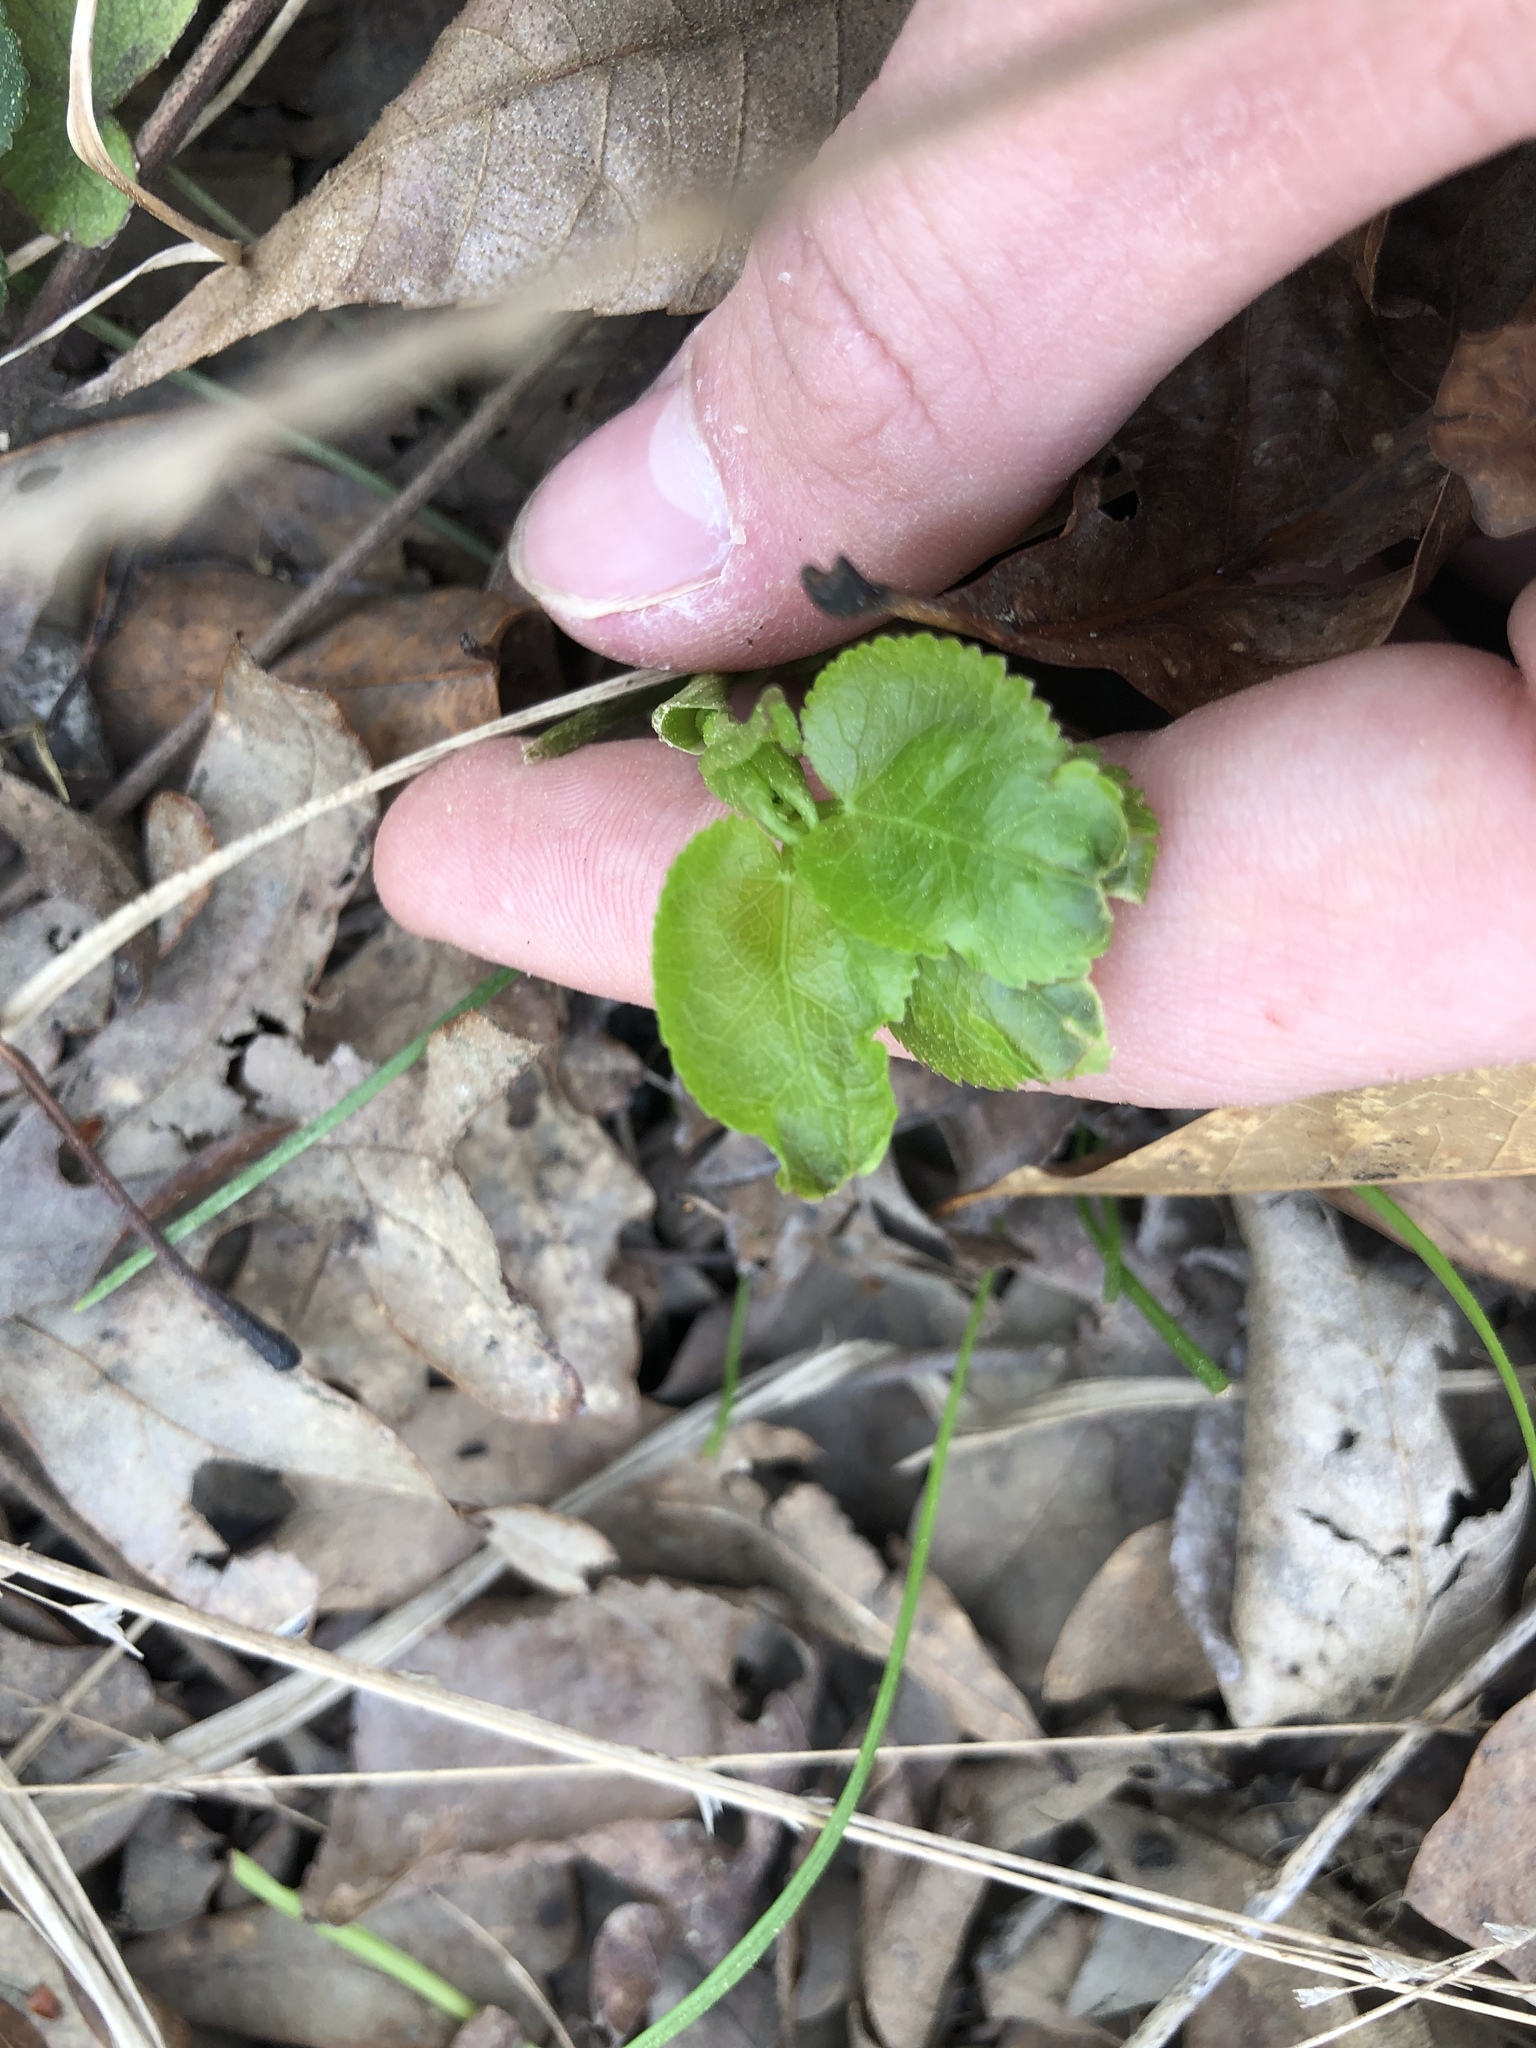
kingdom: Plantae
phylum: Tracheophyta
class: Magnoliopsida
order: Apiales
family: Apiaceae
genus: Zizia
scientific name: Zizia aurea
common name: Golden alexanders
